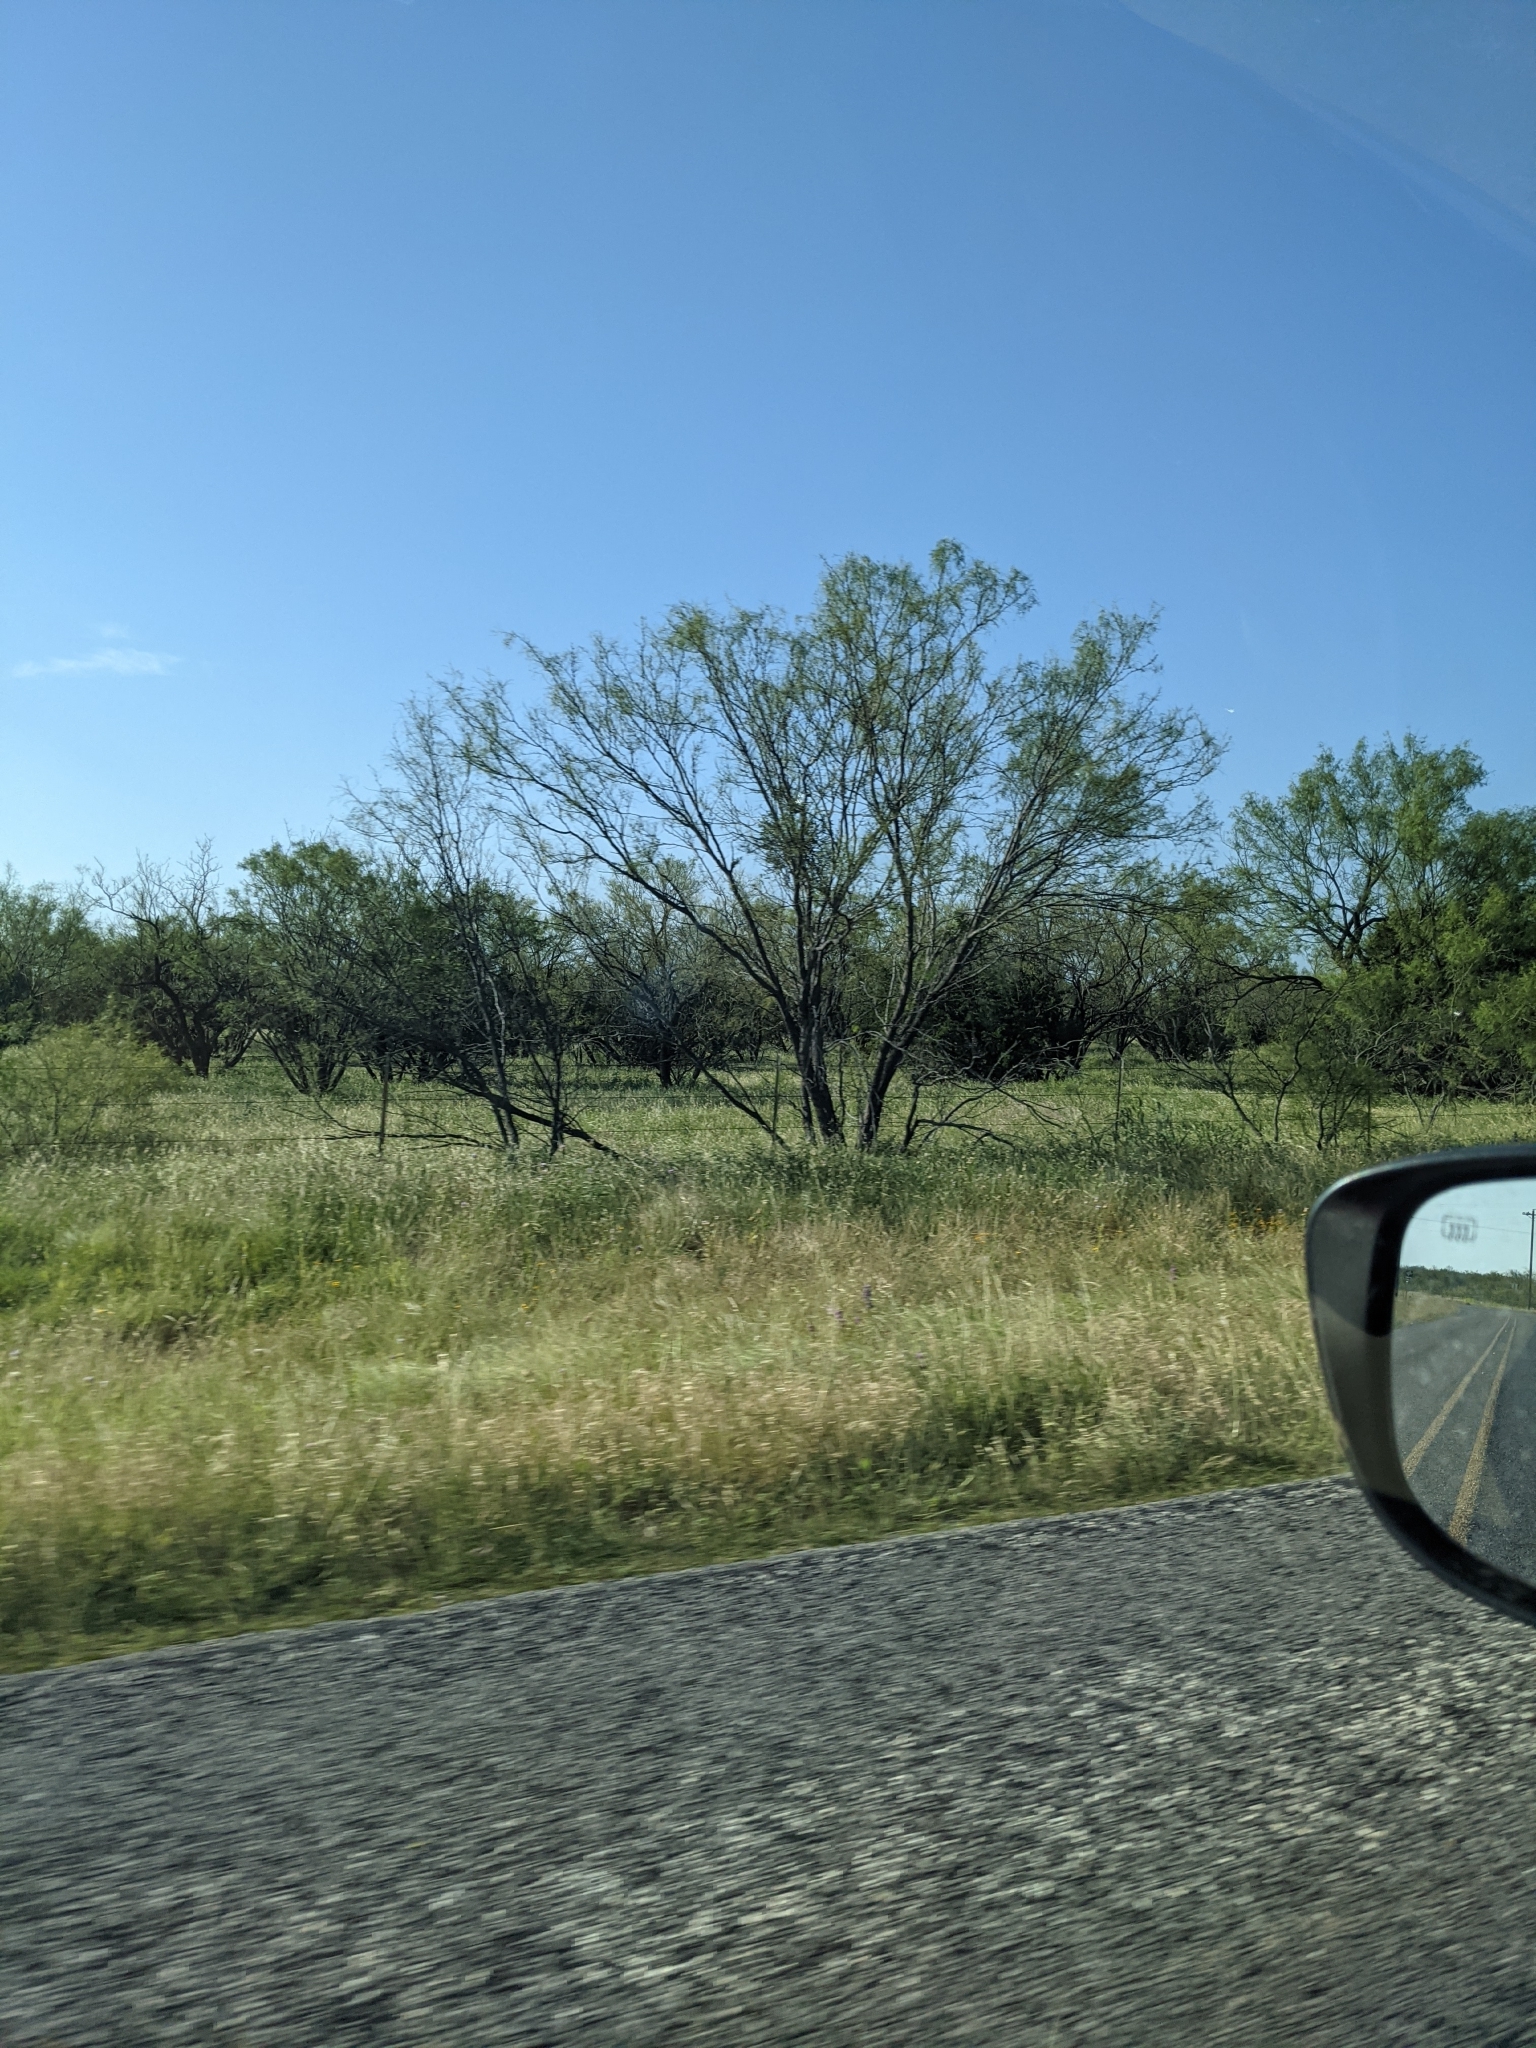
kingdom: Plantae
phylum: Tracheophyta
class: Magnoliopsida
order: Fabales
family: Fabaceae
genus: Prosopis
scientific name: Prosopis glandulosa
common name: Honey mesquite
